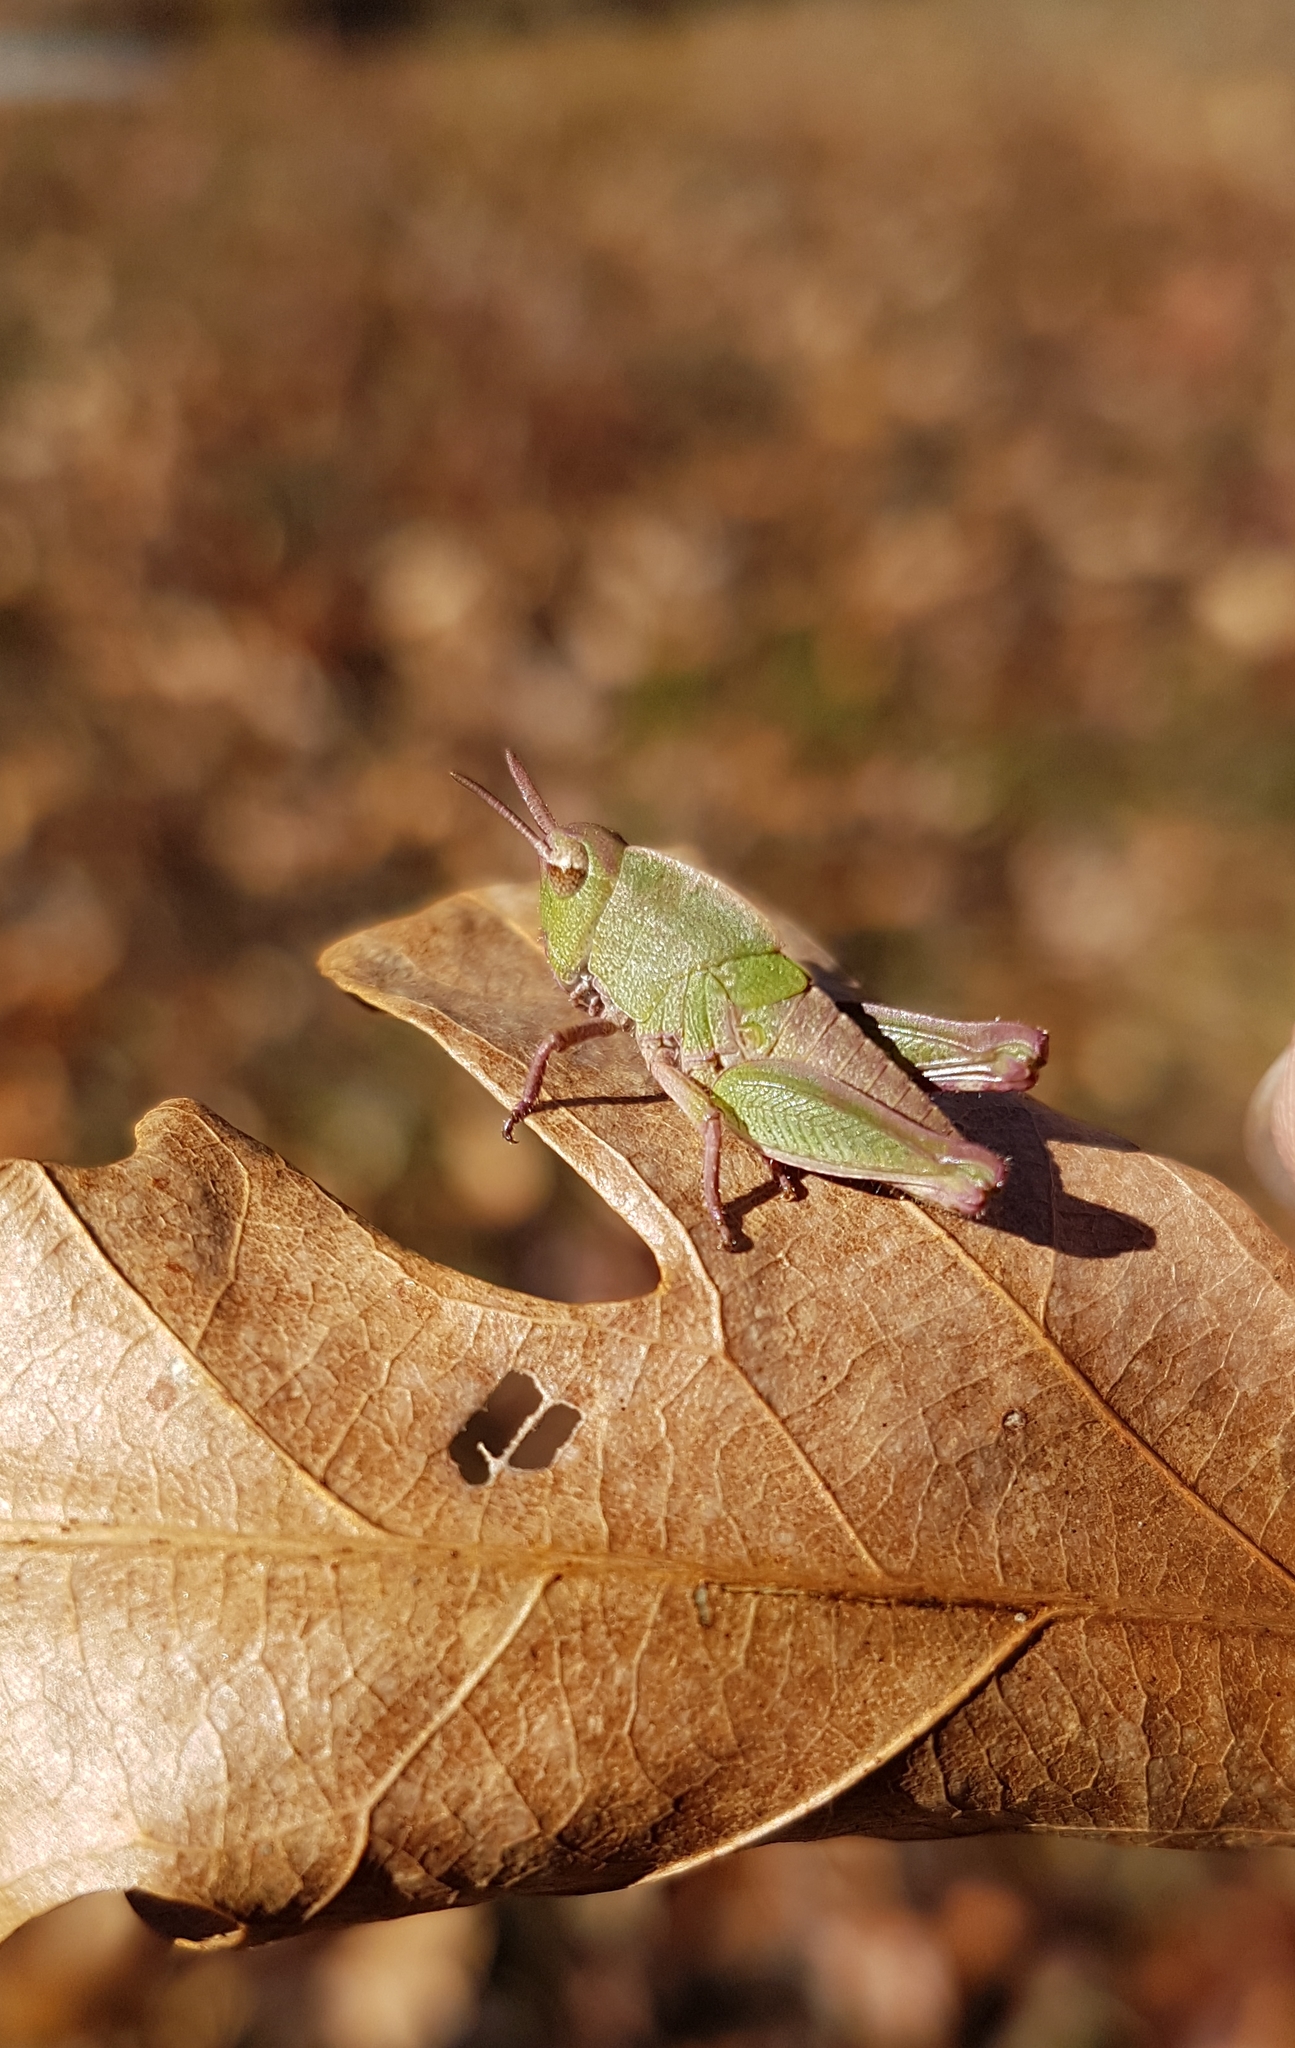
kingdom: Animalia
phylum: Arthropoda
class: Insecta
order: Orthoptera
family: Acrididae
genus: Chortophaga
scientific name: Chortophaga viridifasciata
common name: Green-striped grasshopper
